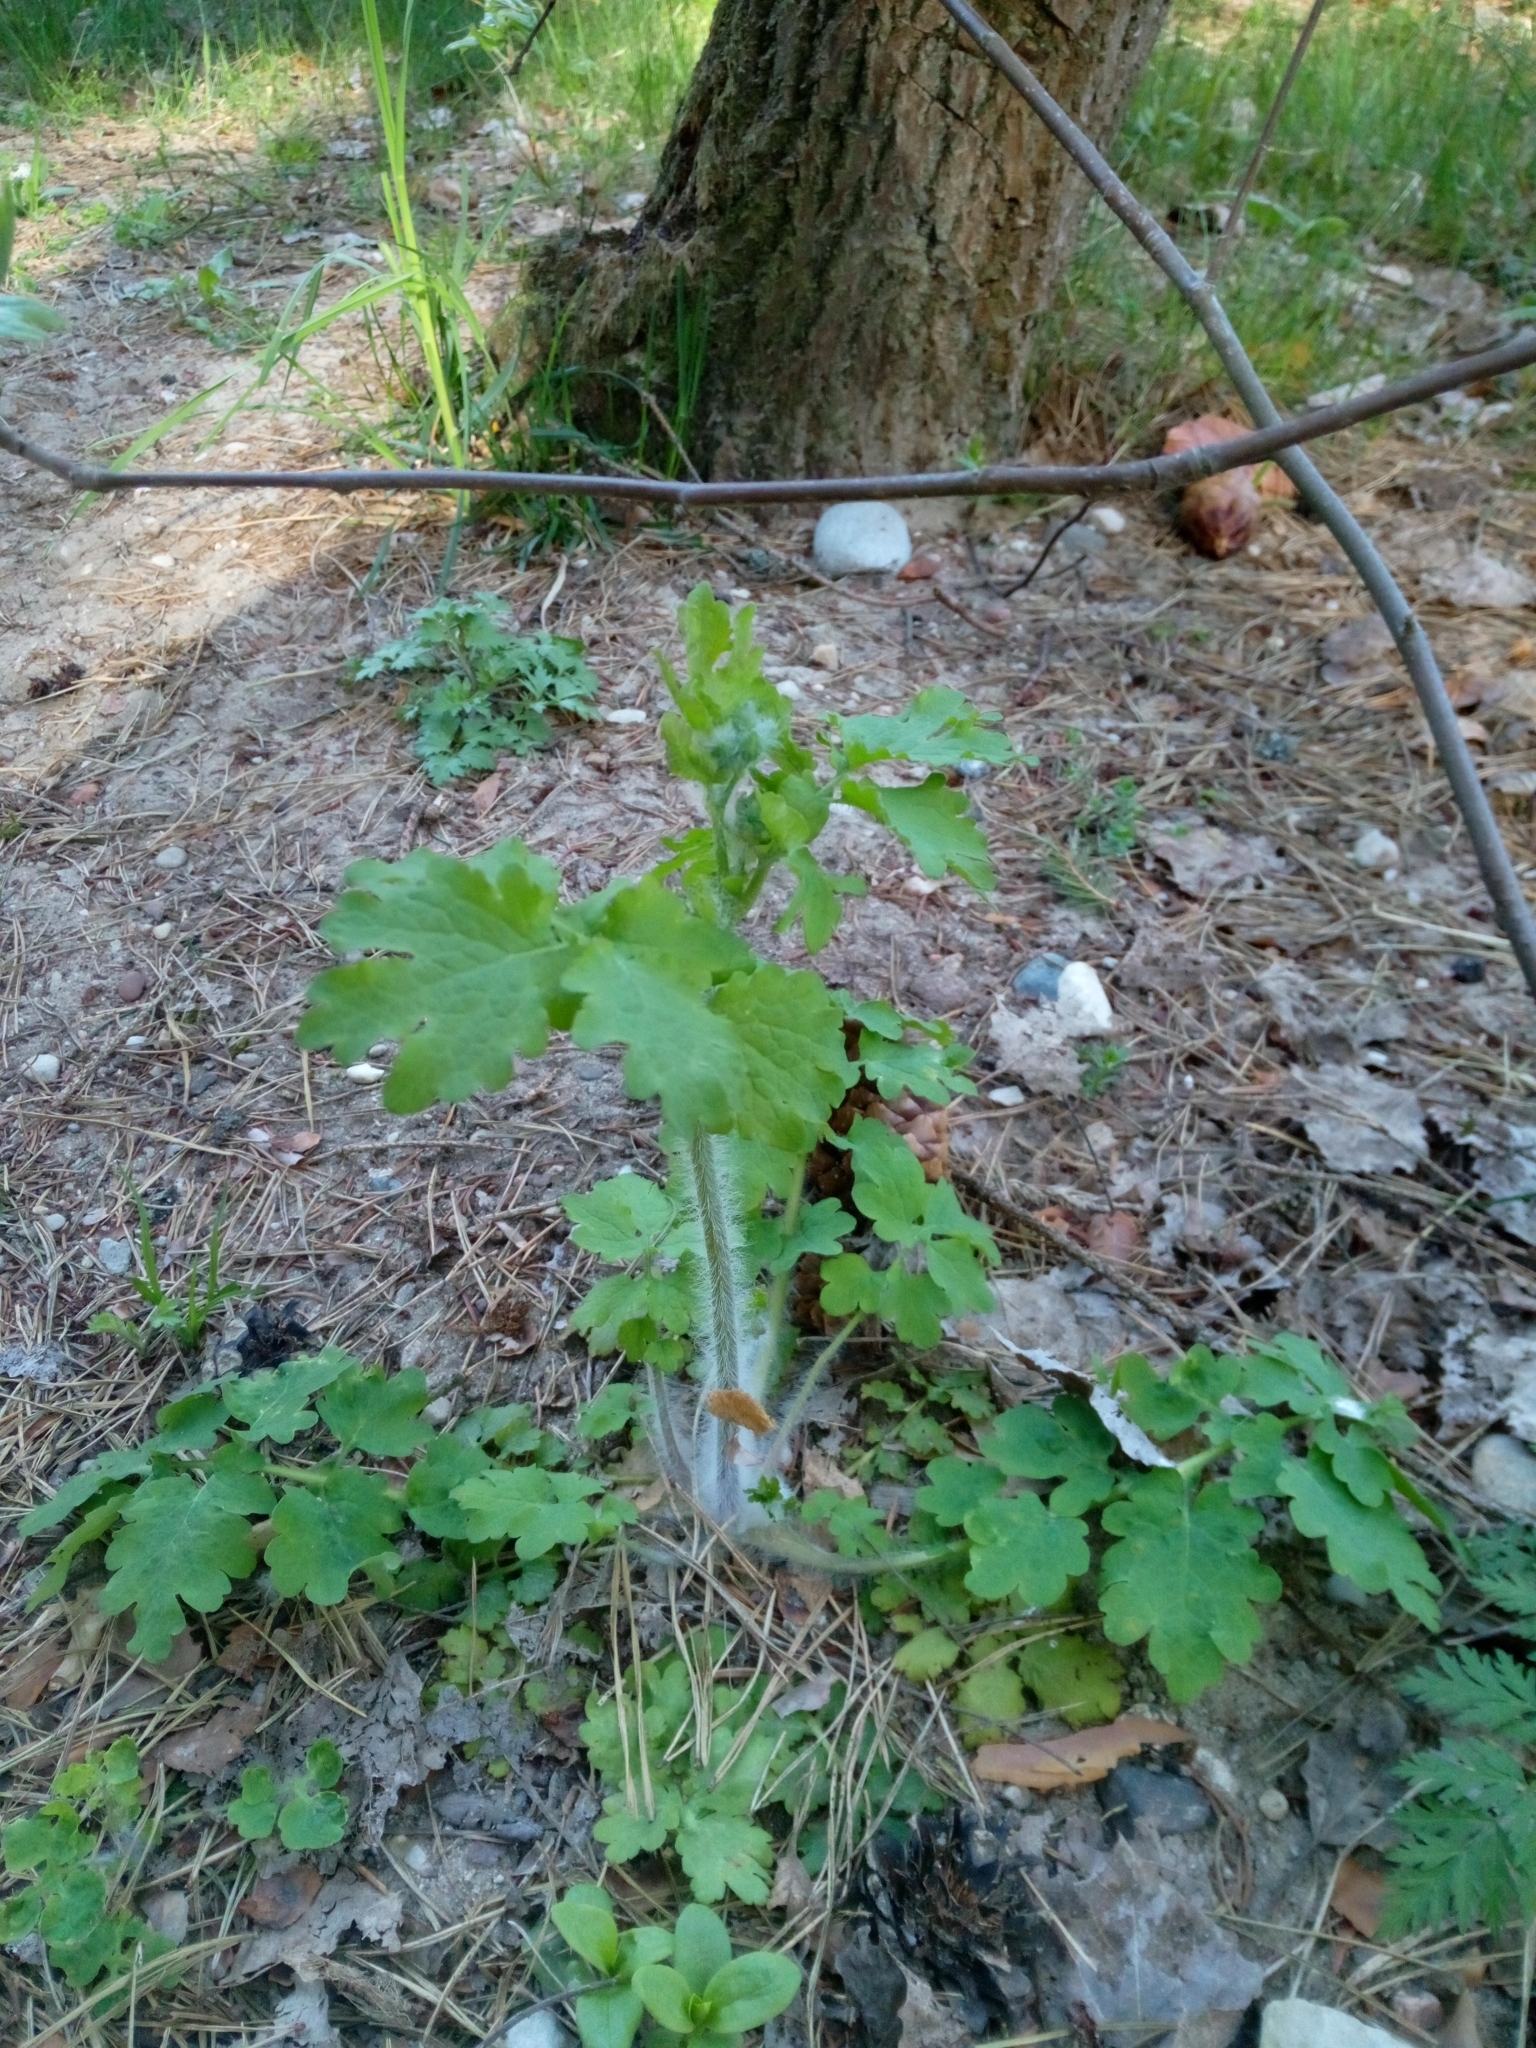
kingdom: Plantae
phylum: Tracheophyta
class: Magnoliopsida
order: Ranunculales
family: Papaveraceae
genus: Chelidonium
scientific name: Chelidonium majus
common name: Greater celandine
